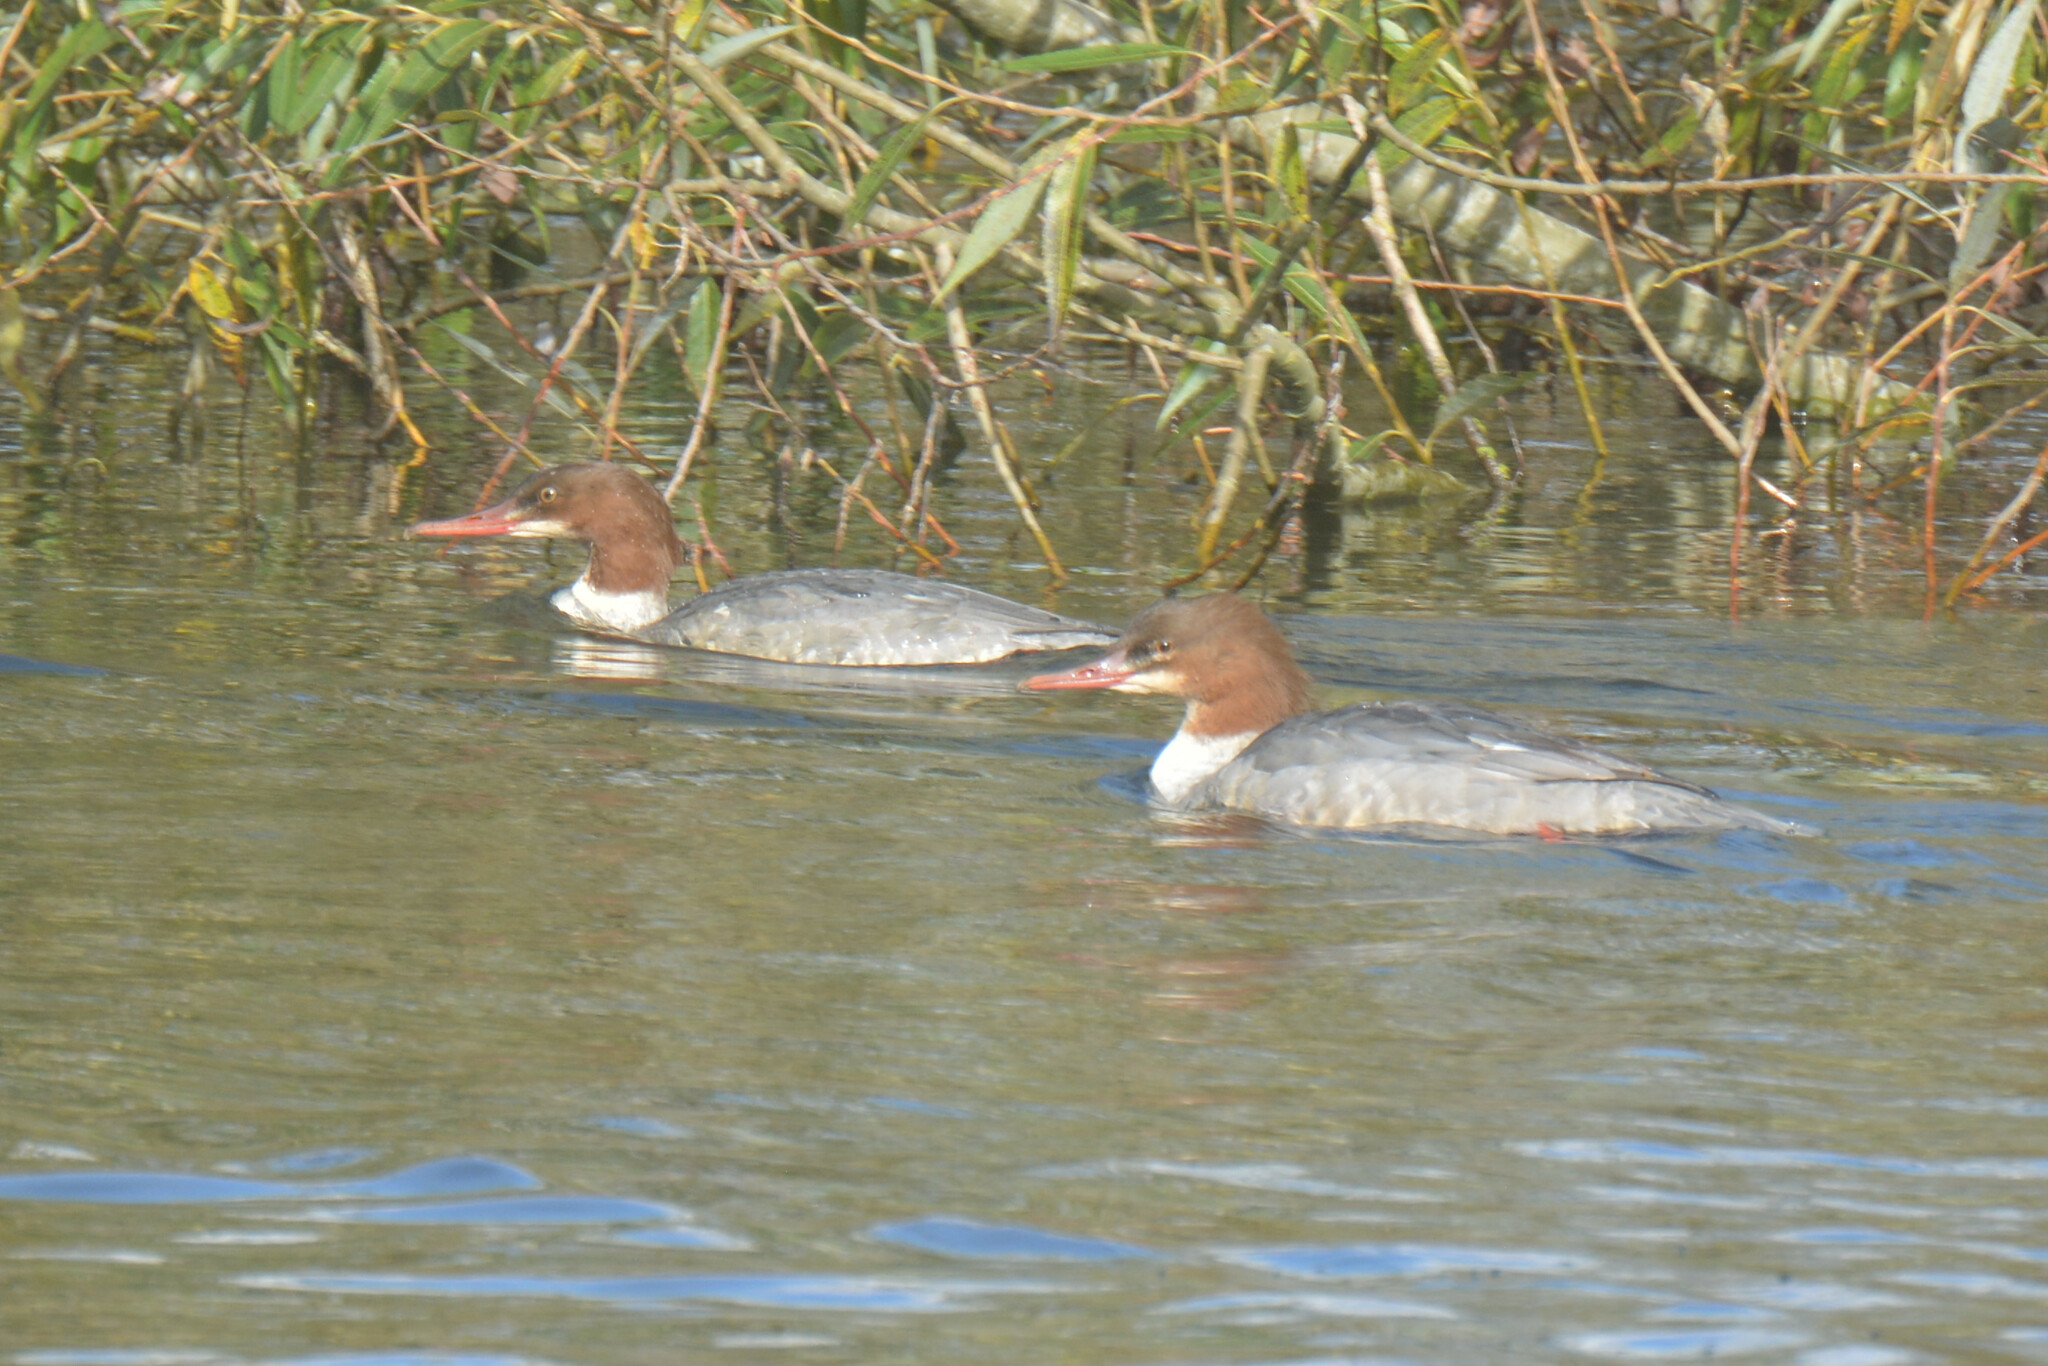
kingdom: Animalia
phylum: Chordata
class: Aves
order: Anseriformes
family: Anatidae
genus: Mergus
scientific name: Mergus merganser
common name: Common merganser
